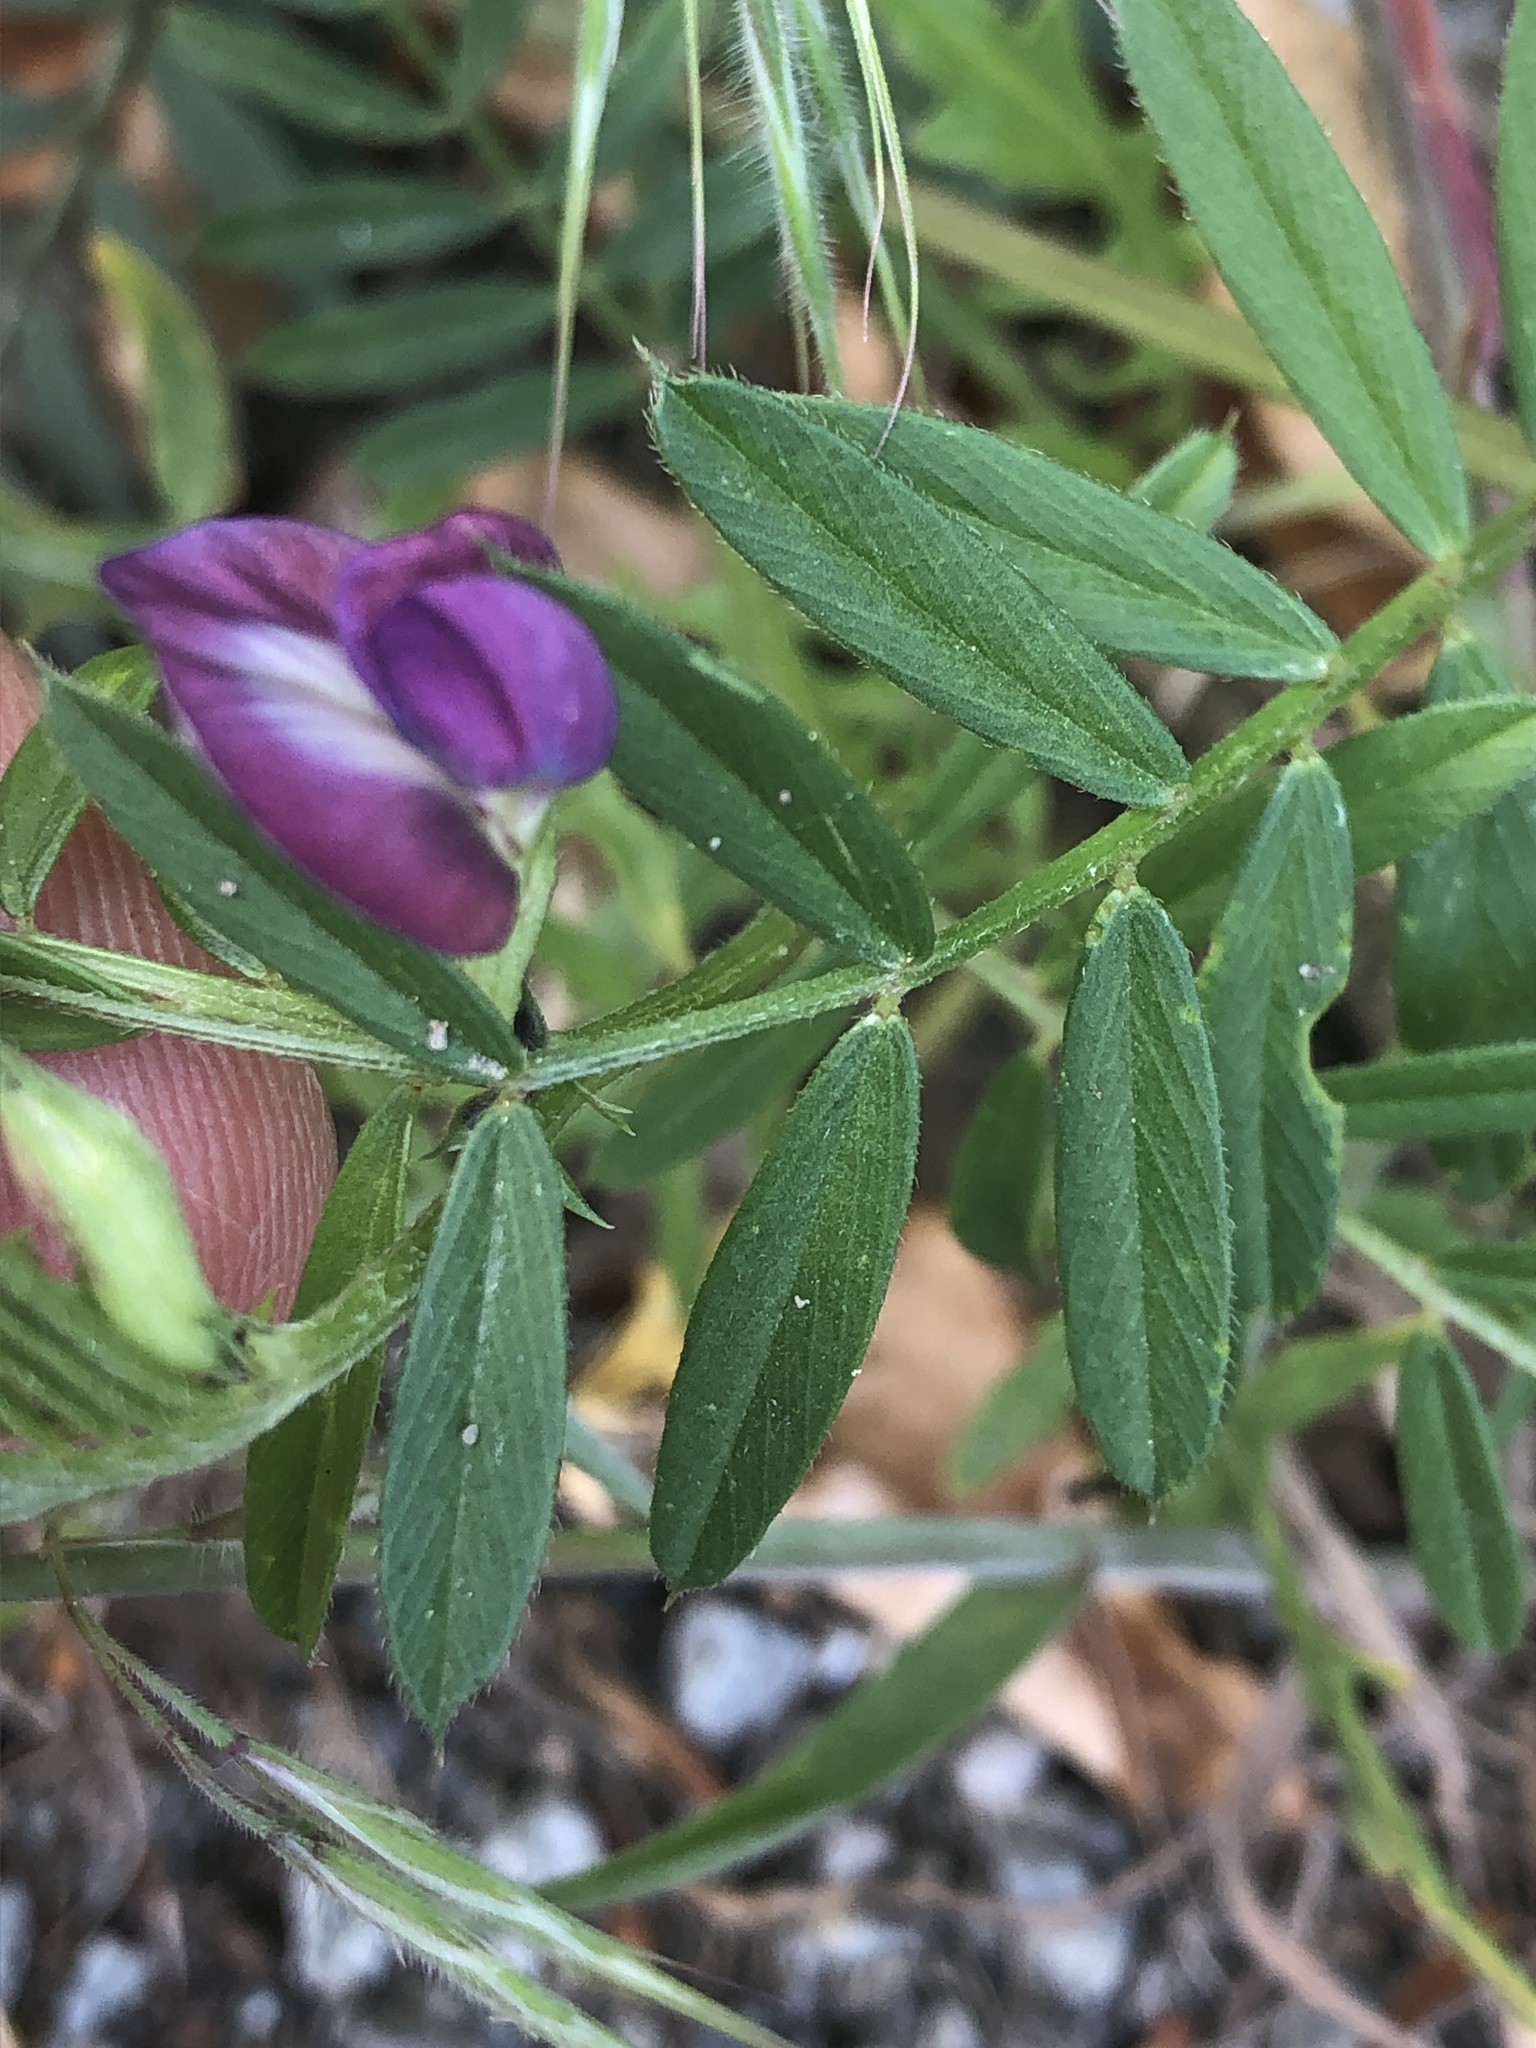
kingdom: Plantae
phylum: Tracheophyta
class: Magnoliopsida
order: Fabales
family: Fabaceae
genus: Vicia
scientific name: Vicia sativa
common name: Garden vetch
